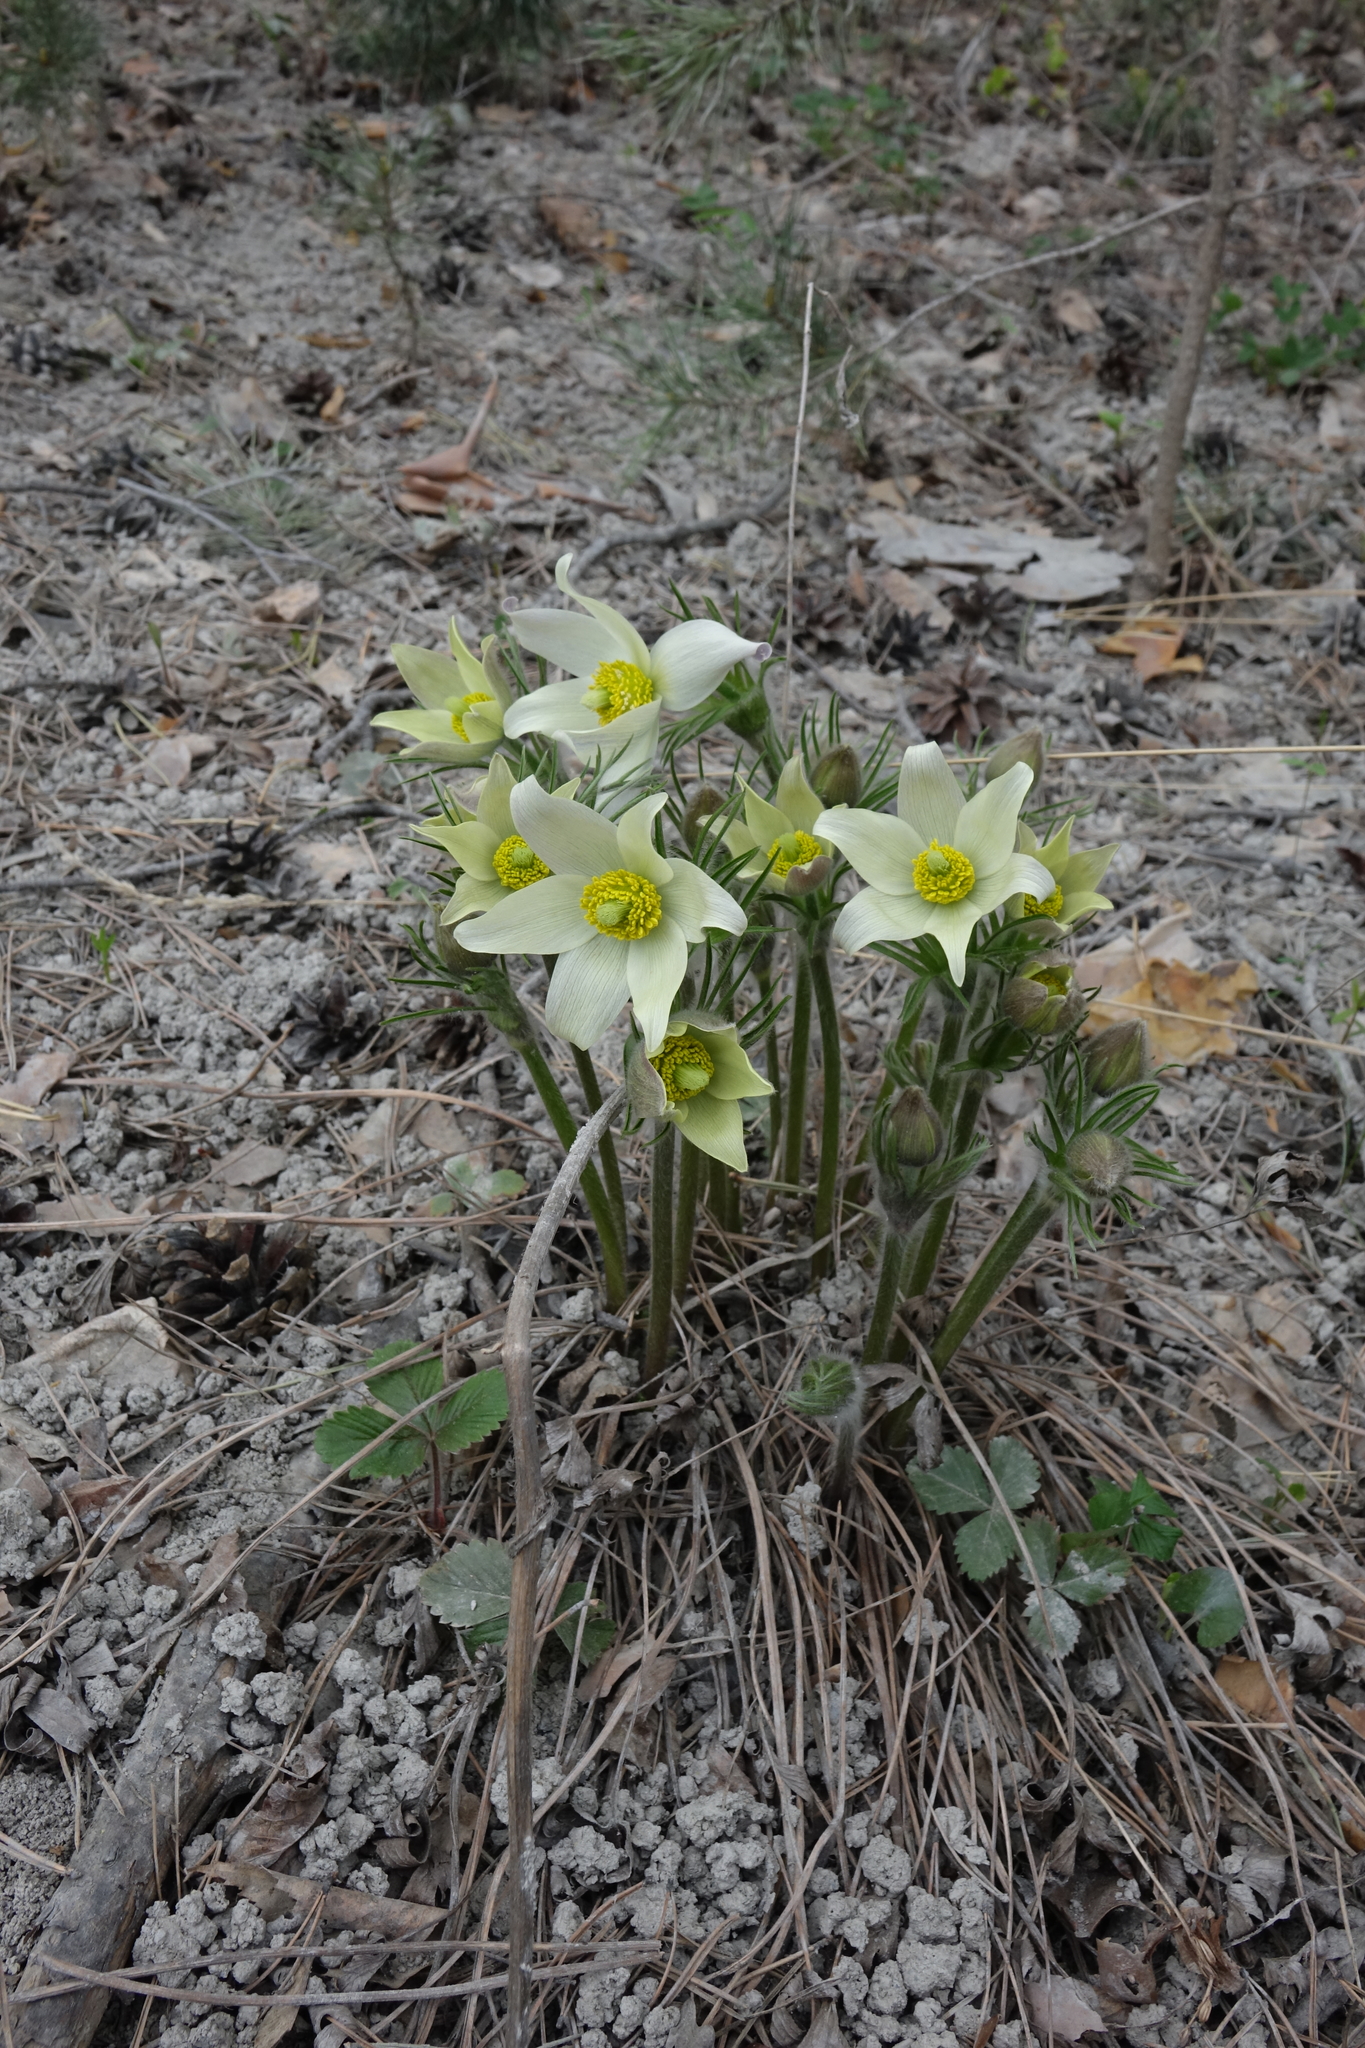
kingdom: Plantae
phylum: Tracheophyta
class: Magnoliopsida
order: Ranunculales
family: Ranunculaceae
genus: Pulsatilla
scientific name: Pulsatilla patens
